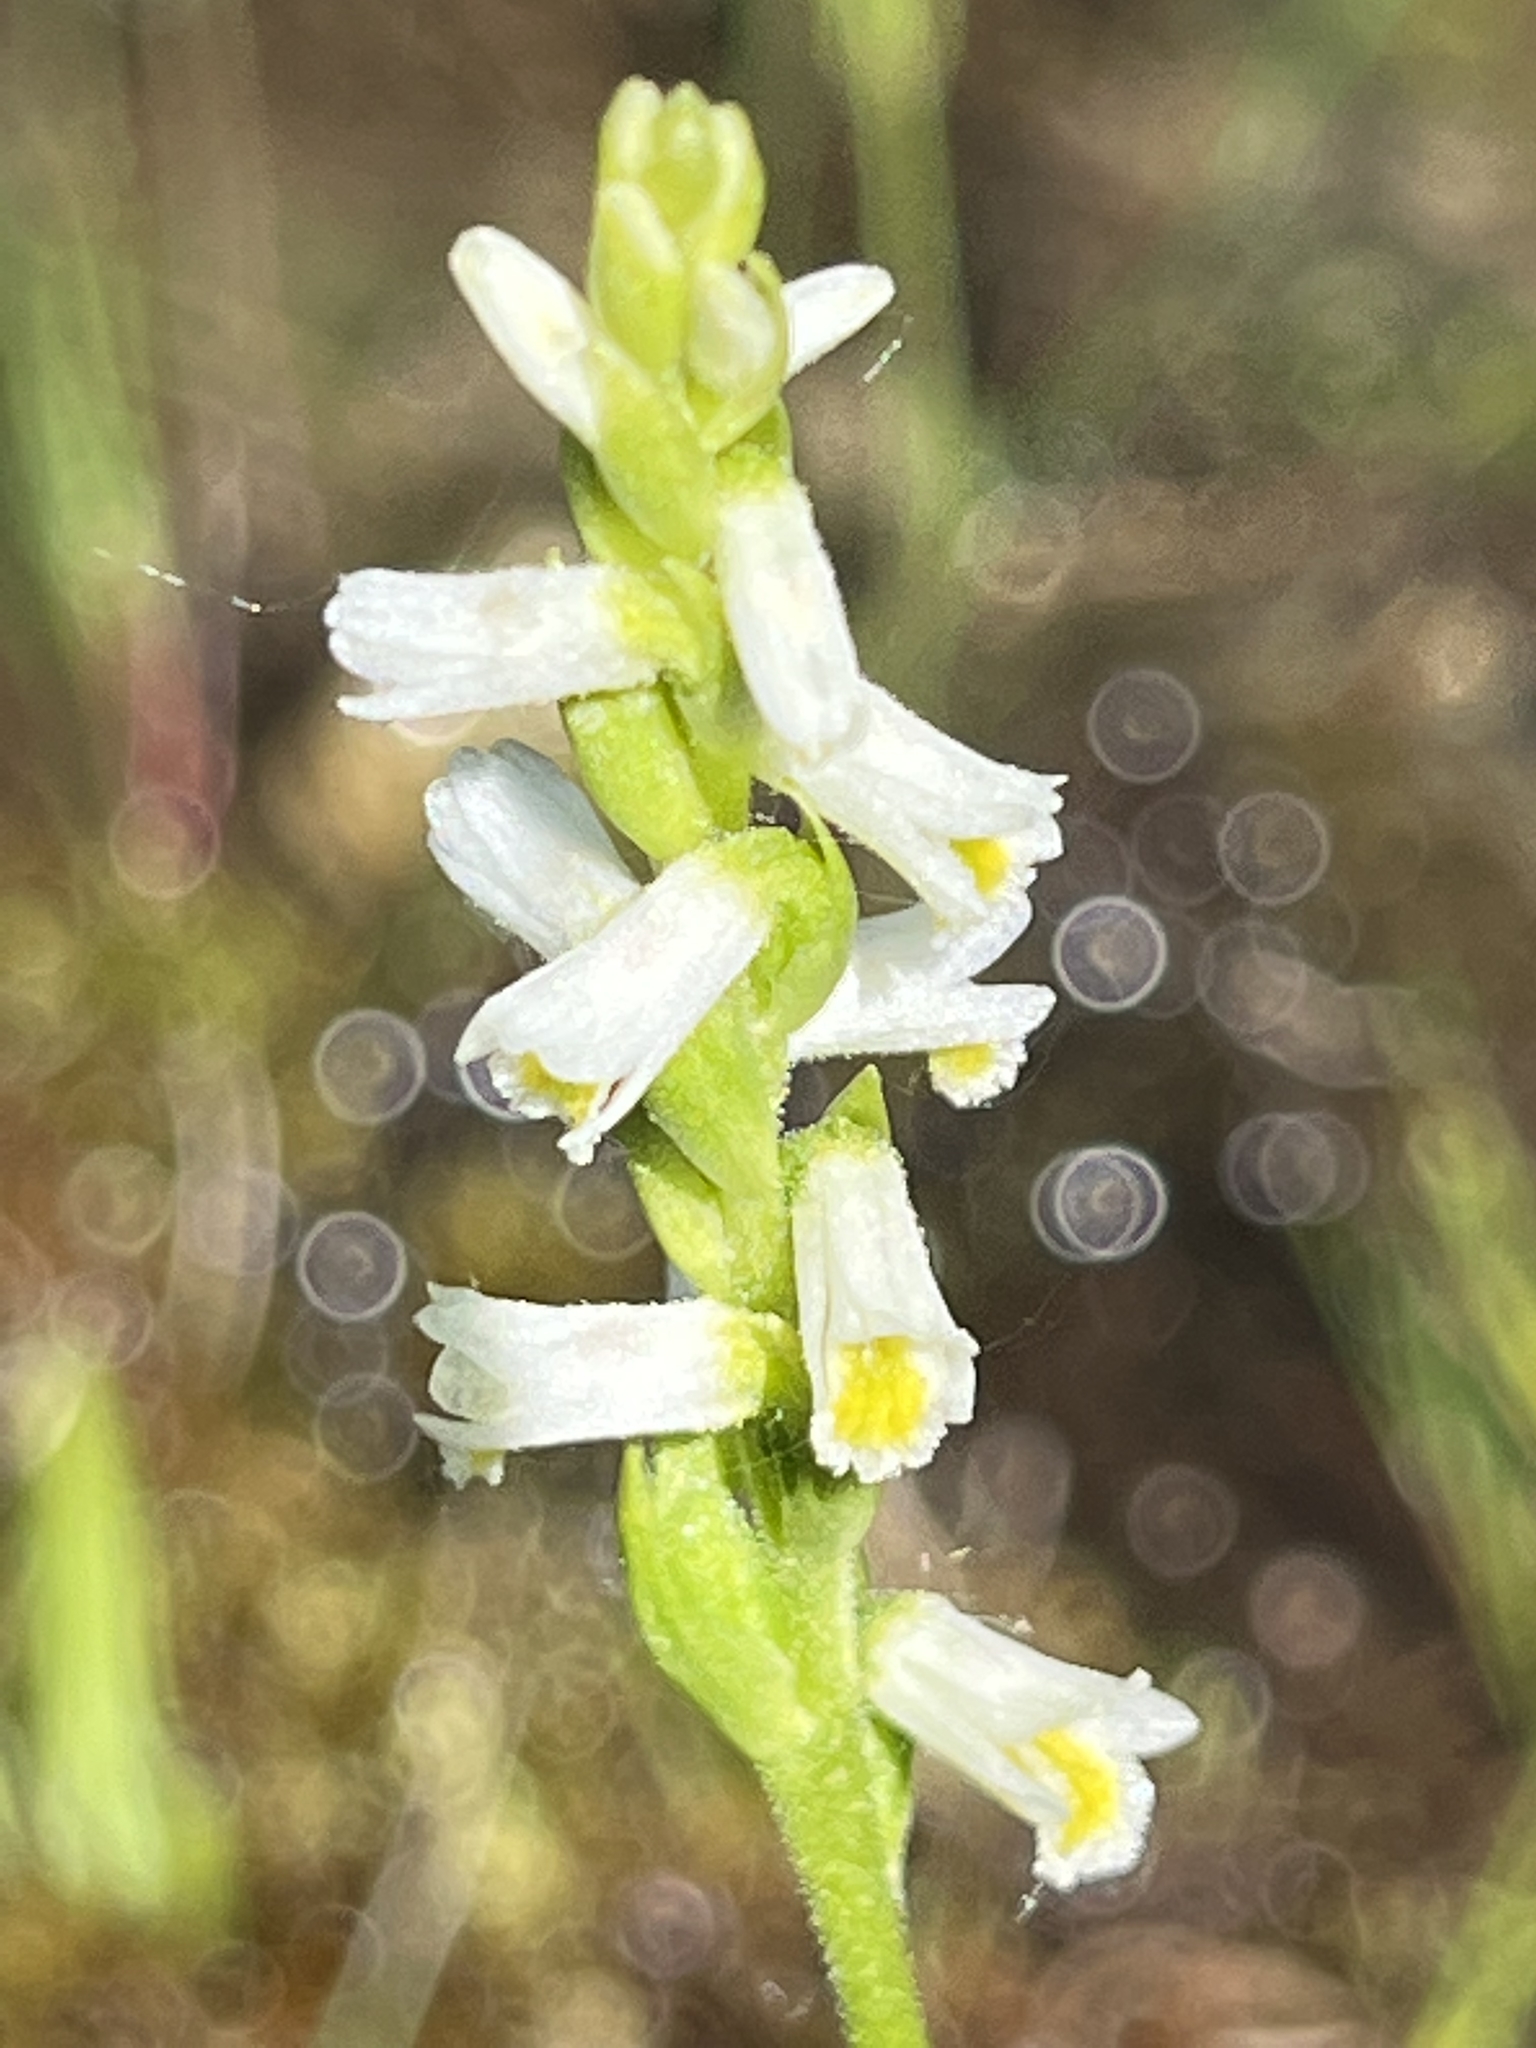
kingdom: Plantae
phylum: Tracheophyta
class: Liliopsida
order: Asparagales
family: Orchidaceae
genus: Spiranthes
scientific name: Spiranthes lucida
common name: Broad-leaved ladies'-tresses
